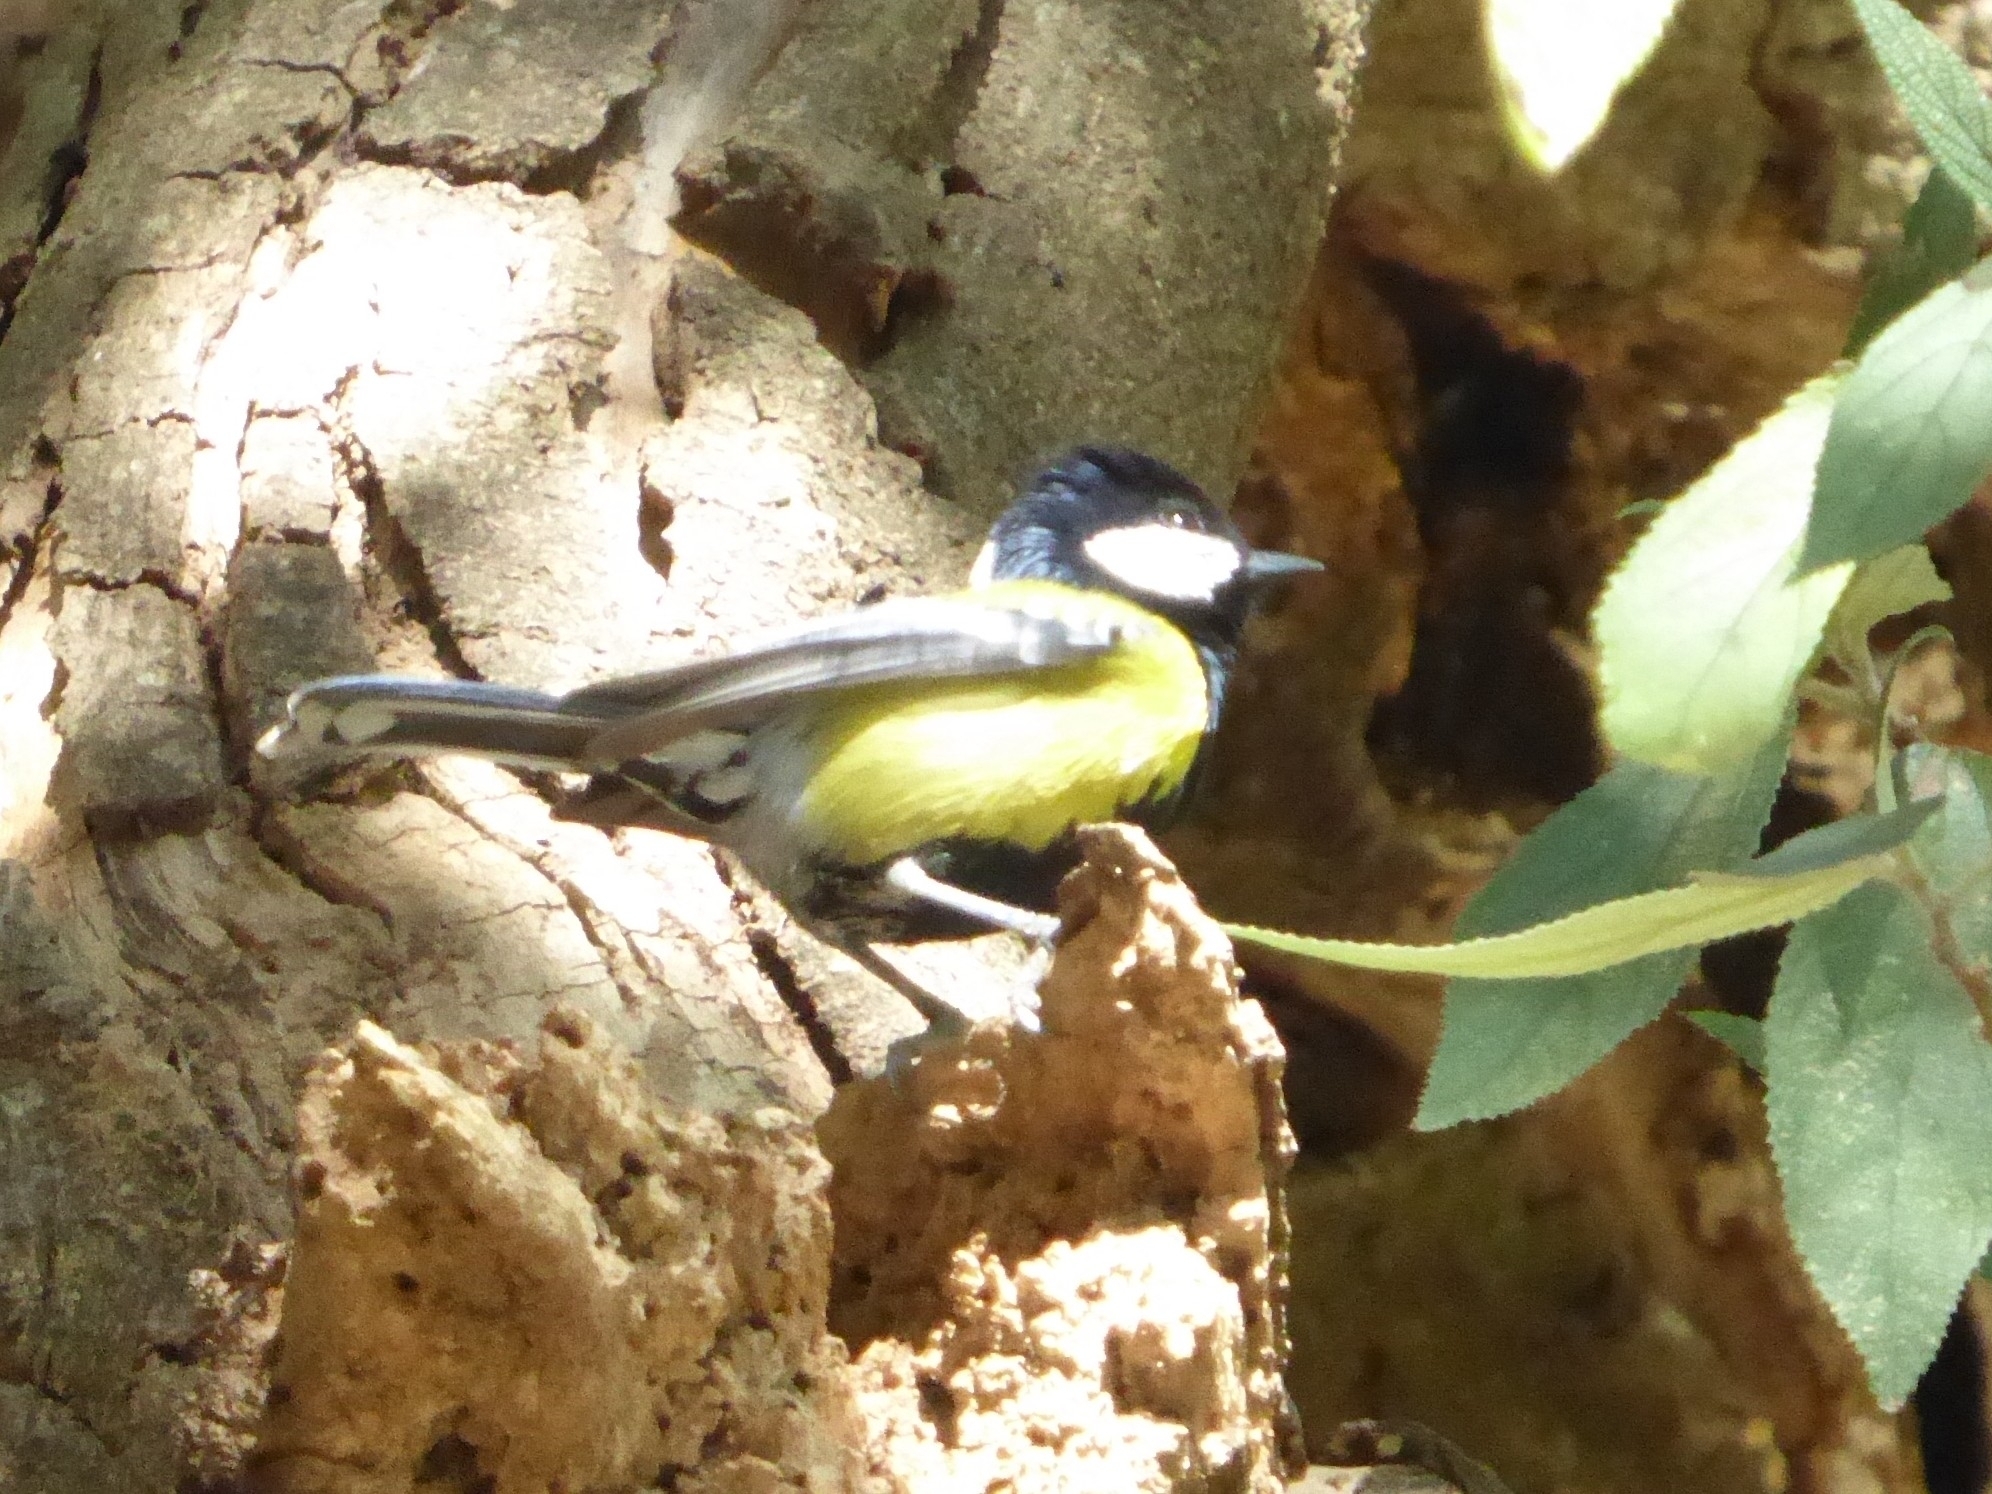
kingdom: Animalia
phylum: Chordata
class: Aves
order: Passeriformes
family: Paridae
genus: Parus
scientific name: Parus monticolus
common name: Green-backed tit
